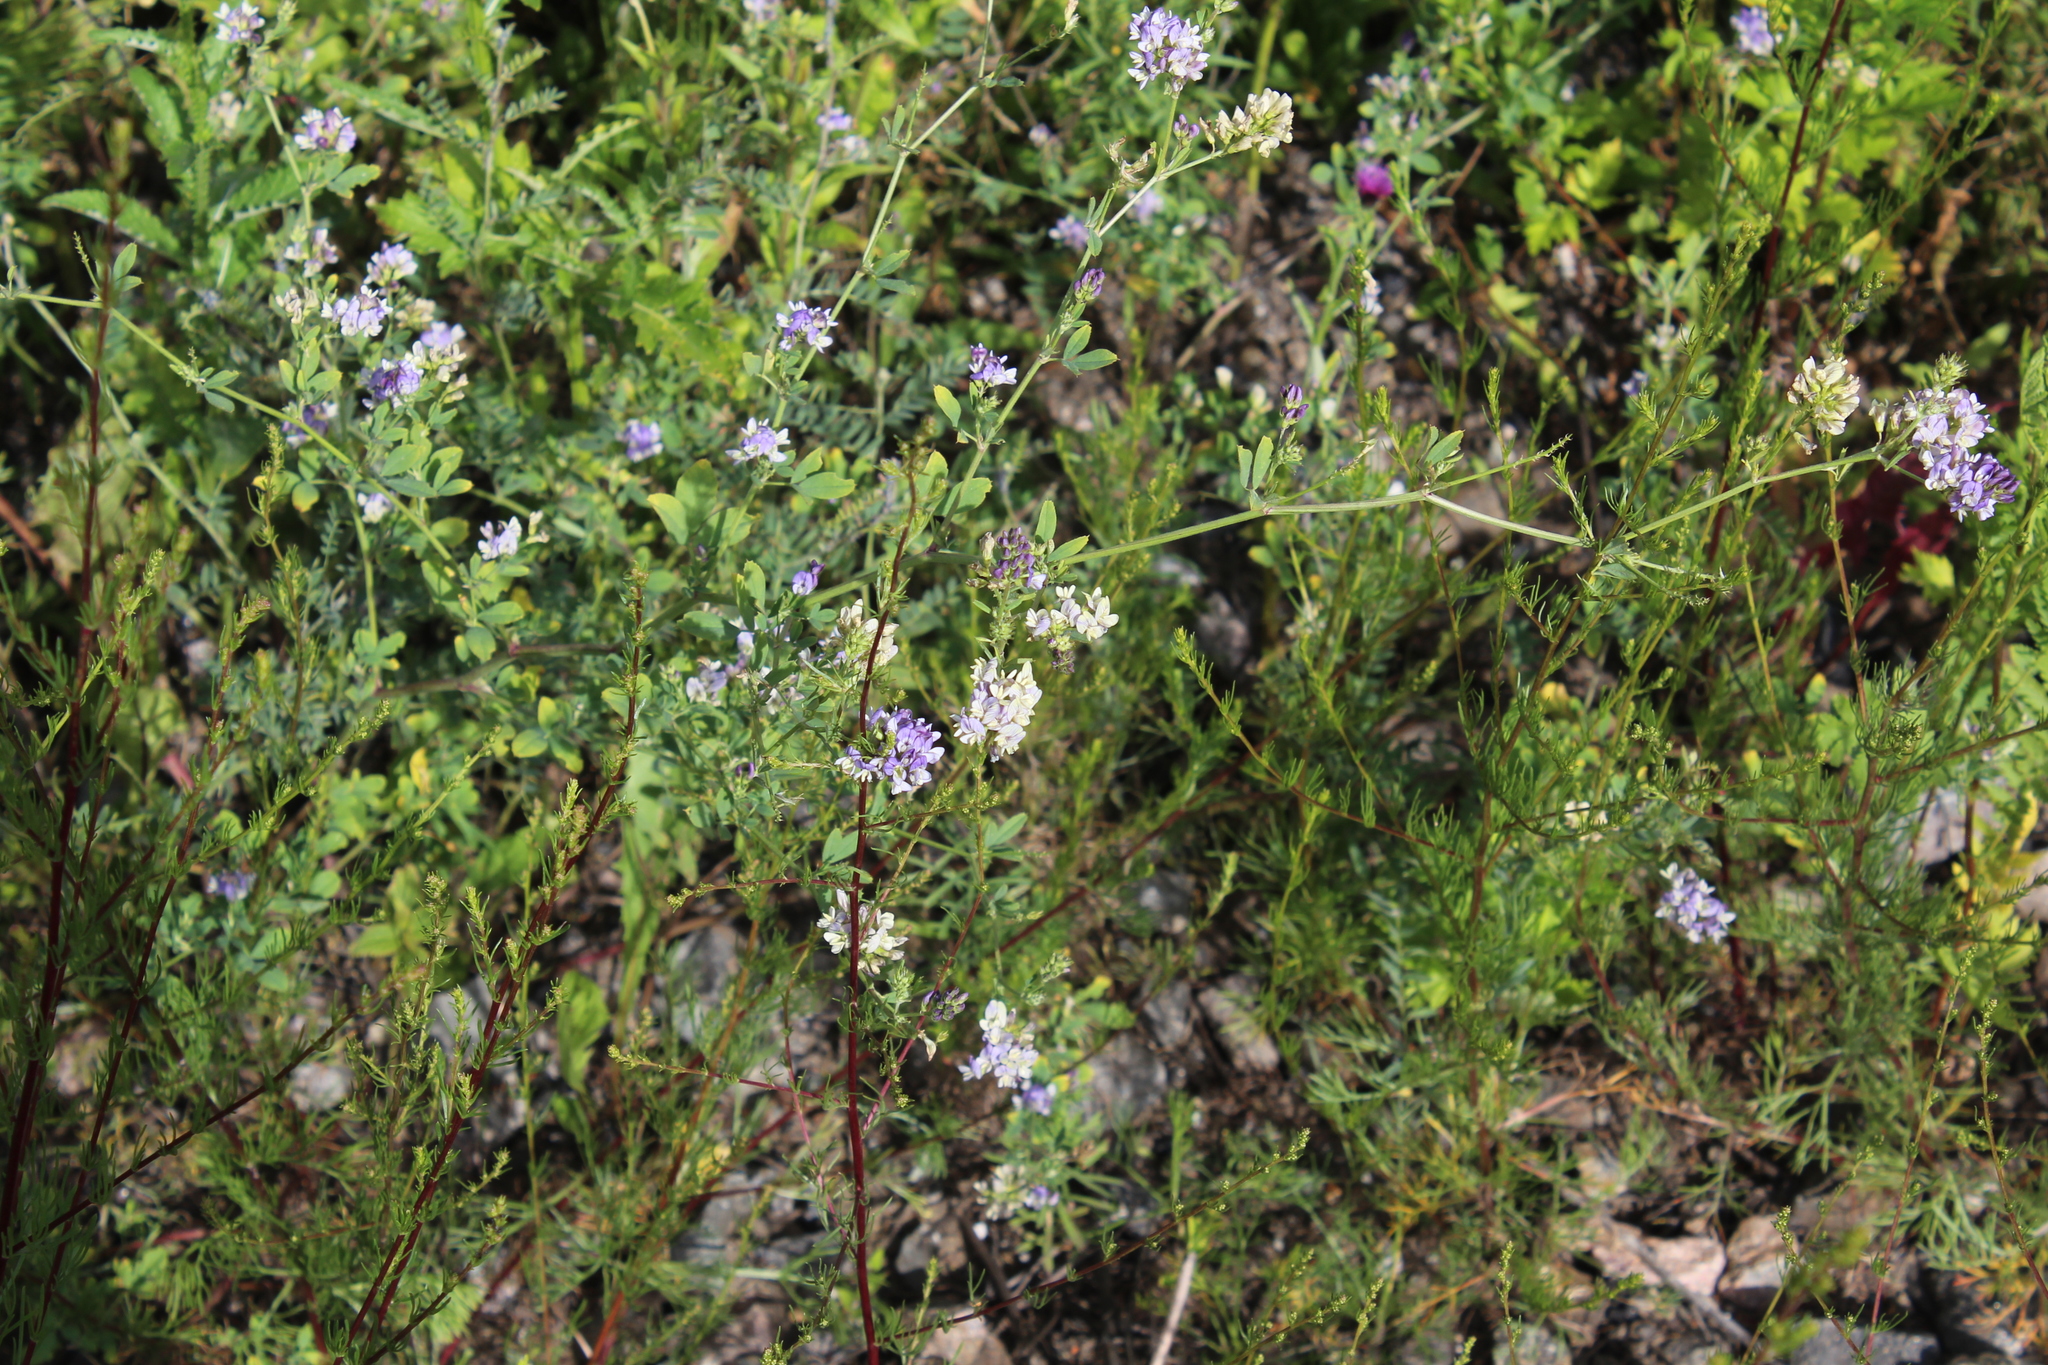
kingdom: Plantae
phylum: Tracheophyta
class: Magnoliopsida
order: Fabales
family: Fabaceae
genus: Medicago
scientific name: Medicago varia
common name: Sand lucerne
